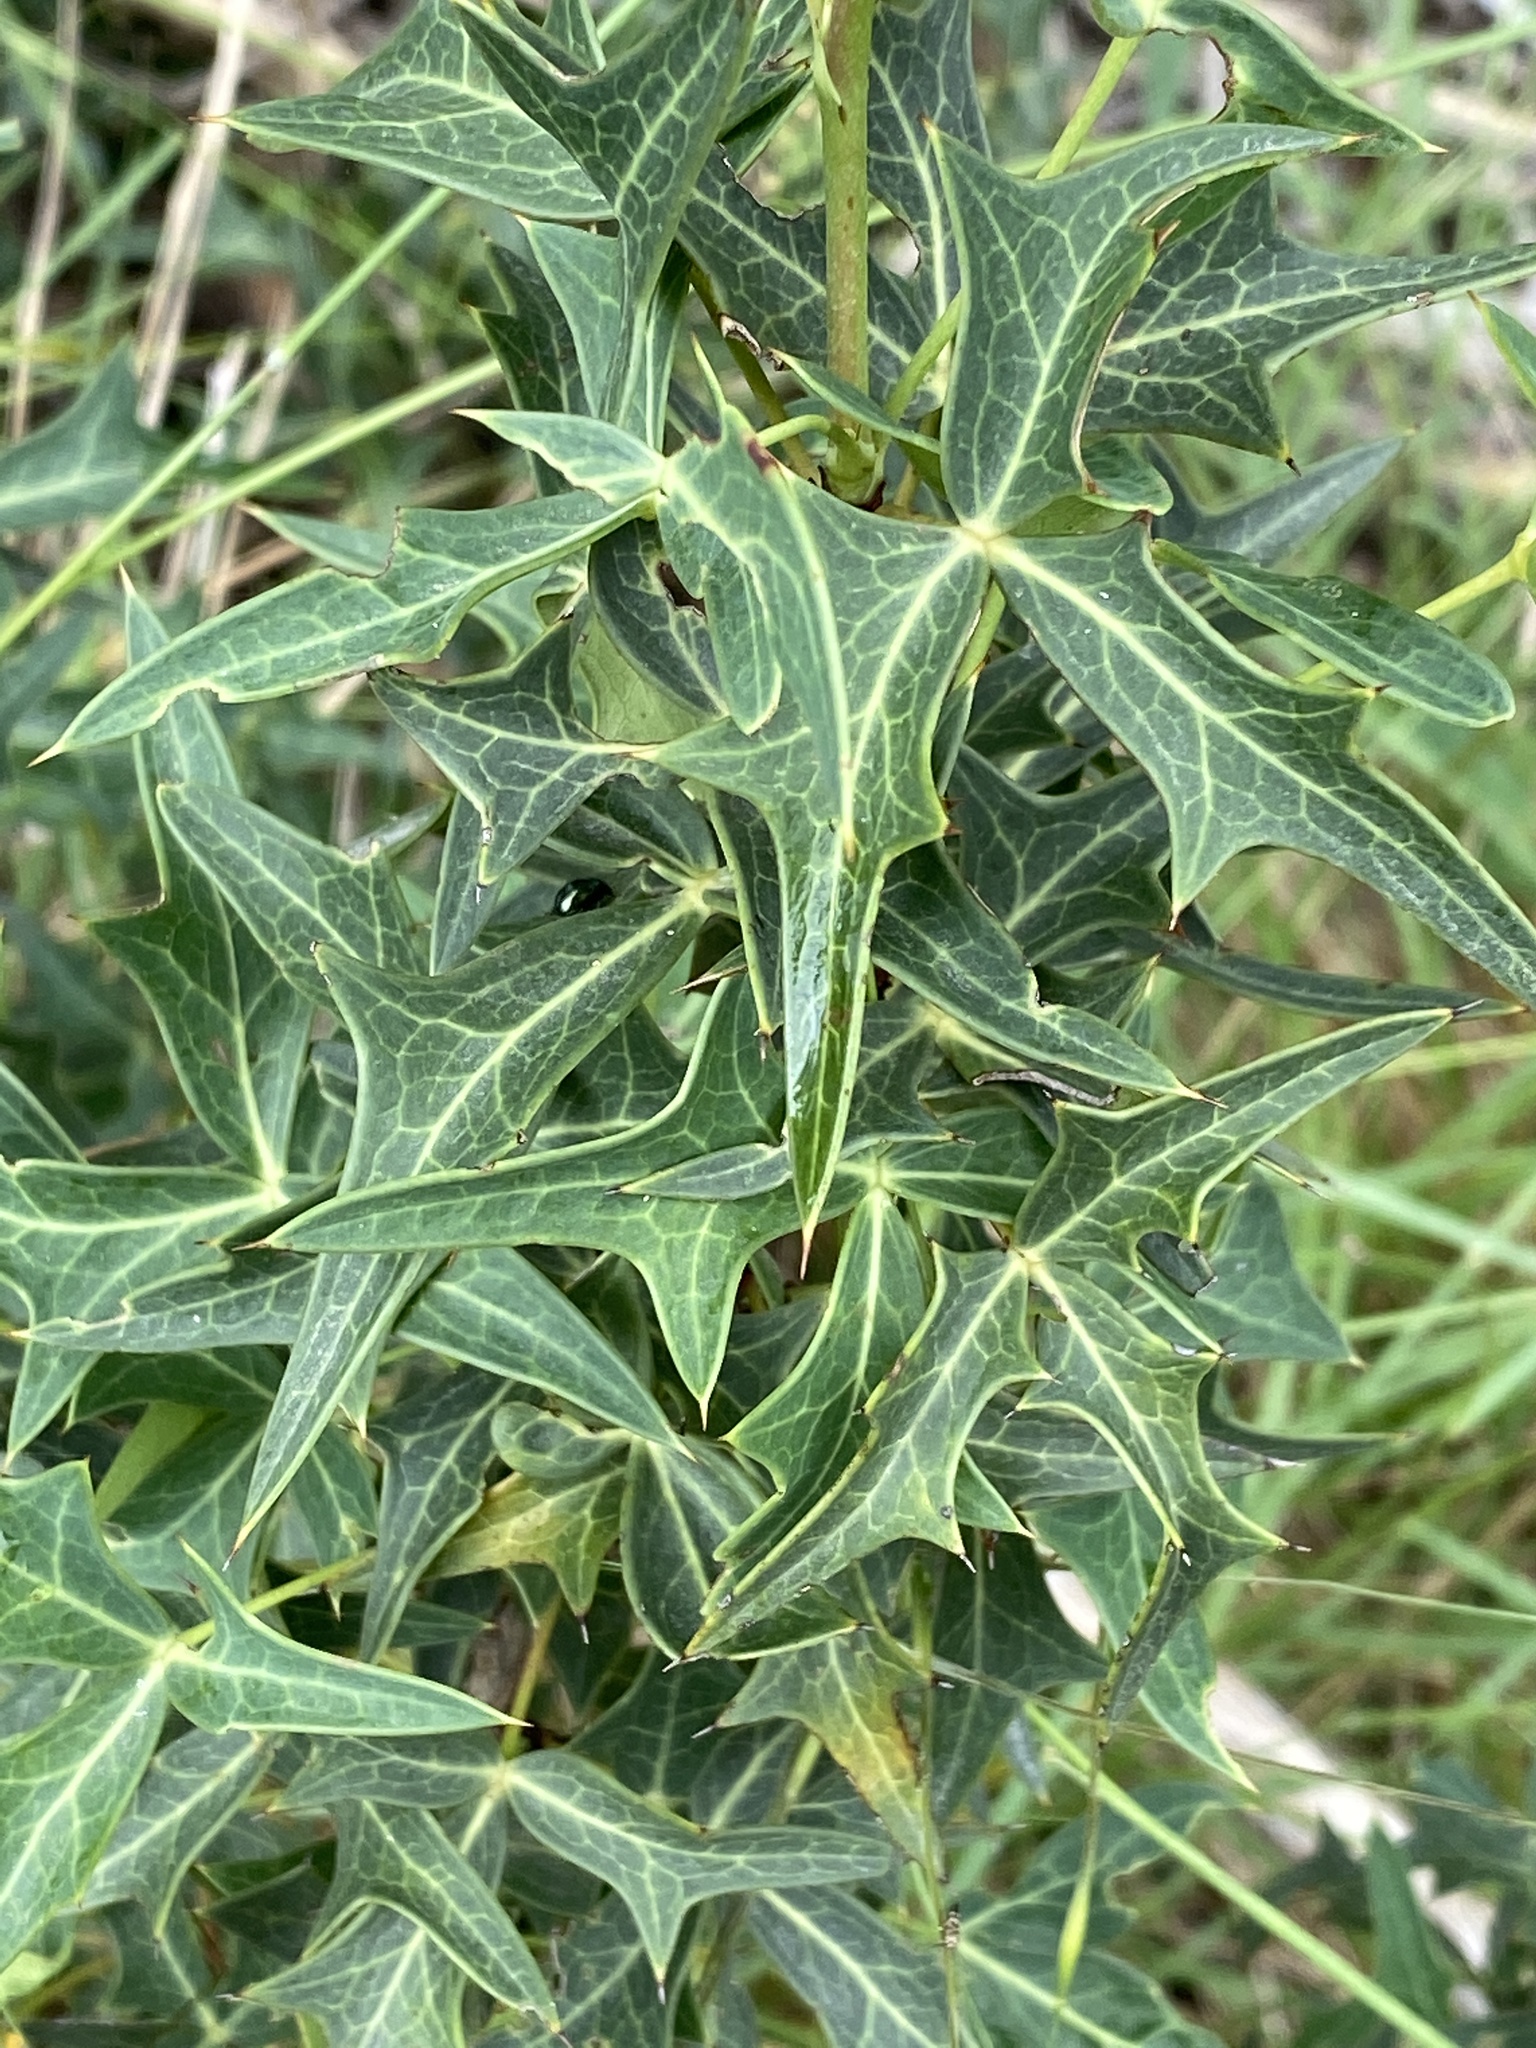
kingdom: Plantae
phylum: Tracheophyta
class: Magnoliopsida
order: Ranunculales
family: Berberidaceae
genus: Alloberberis
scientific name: Alloberberis trifoliolata
